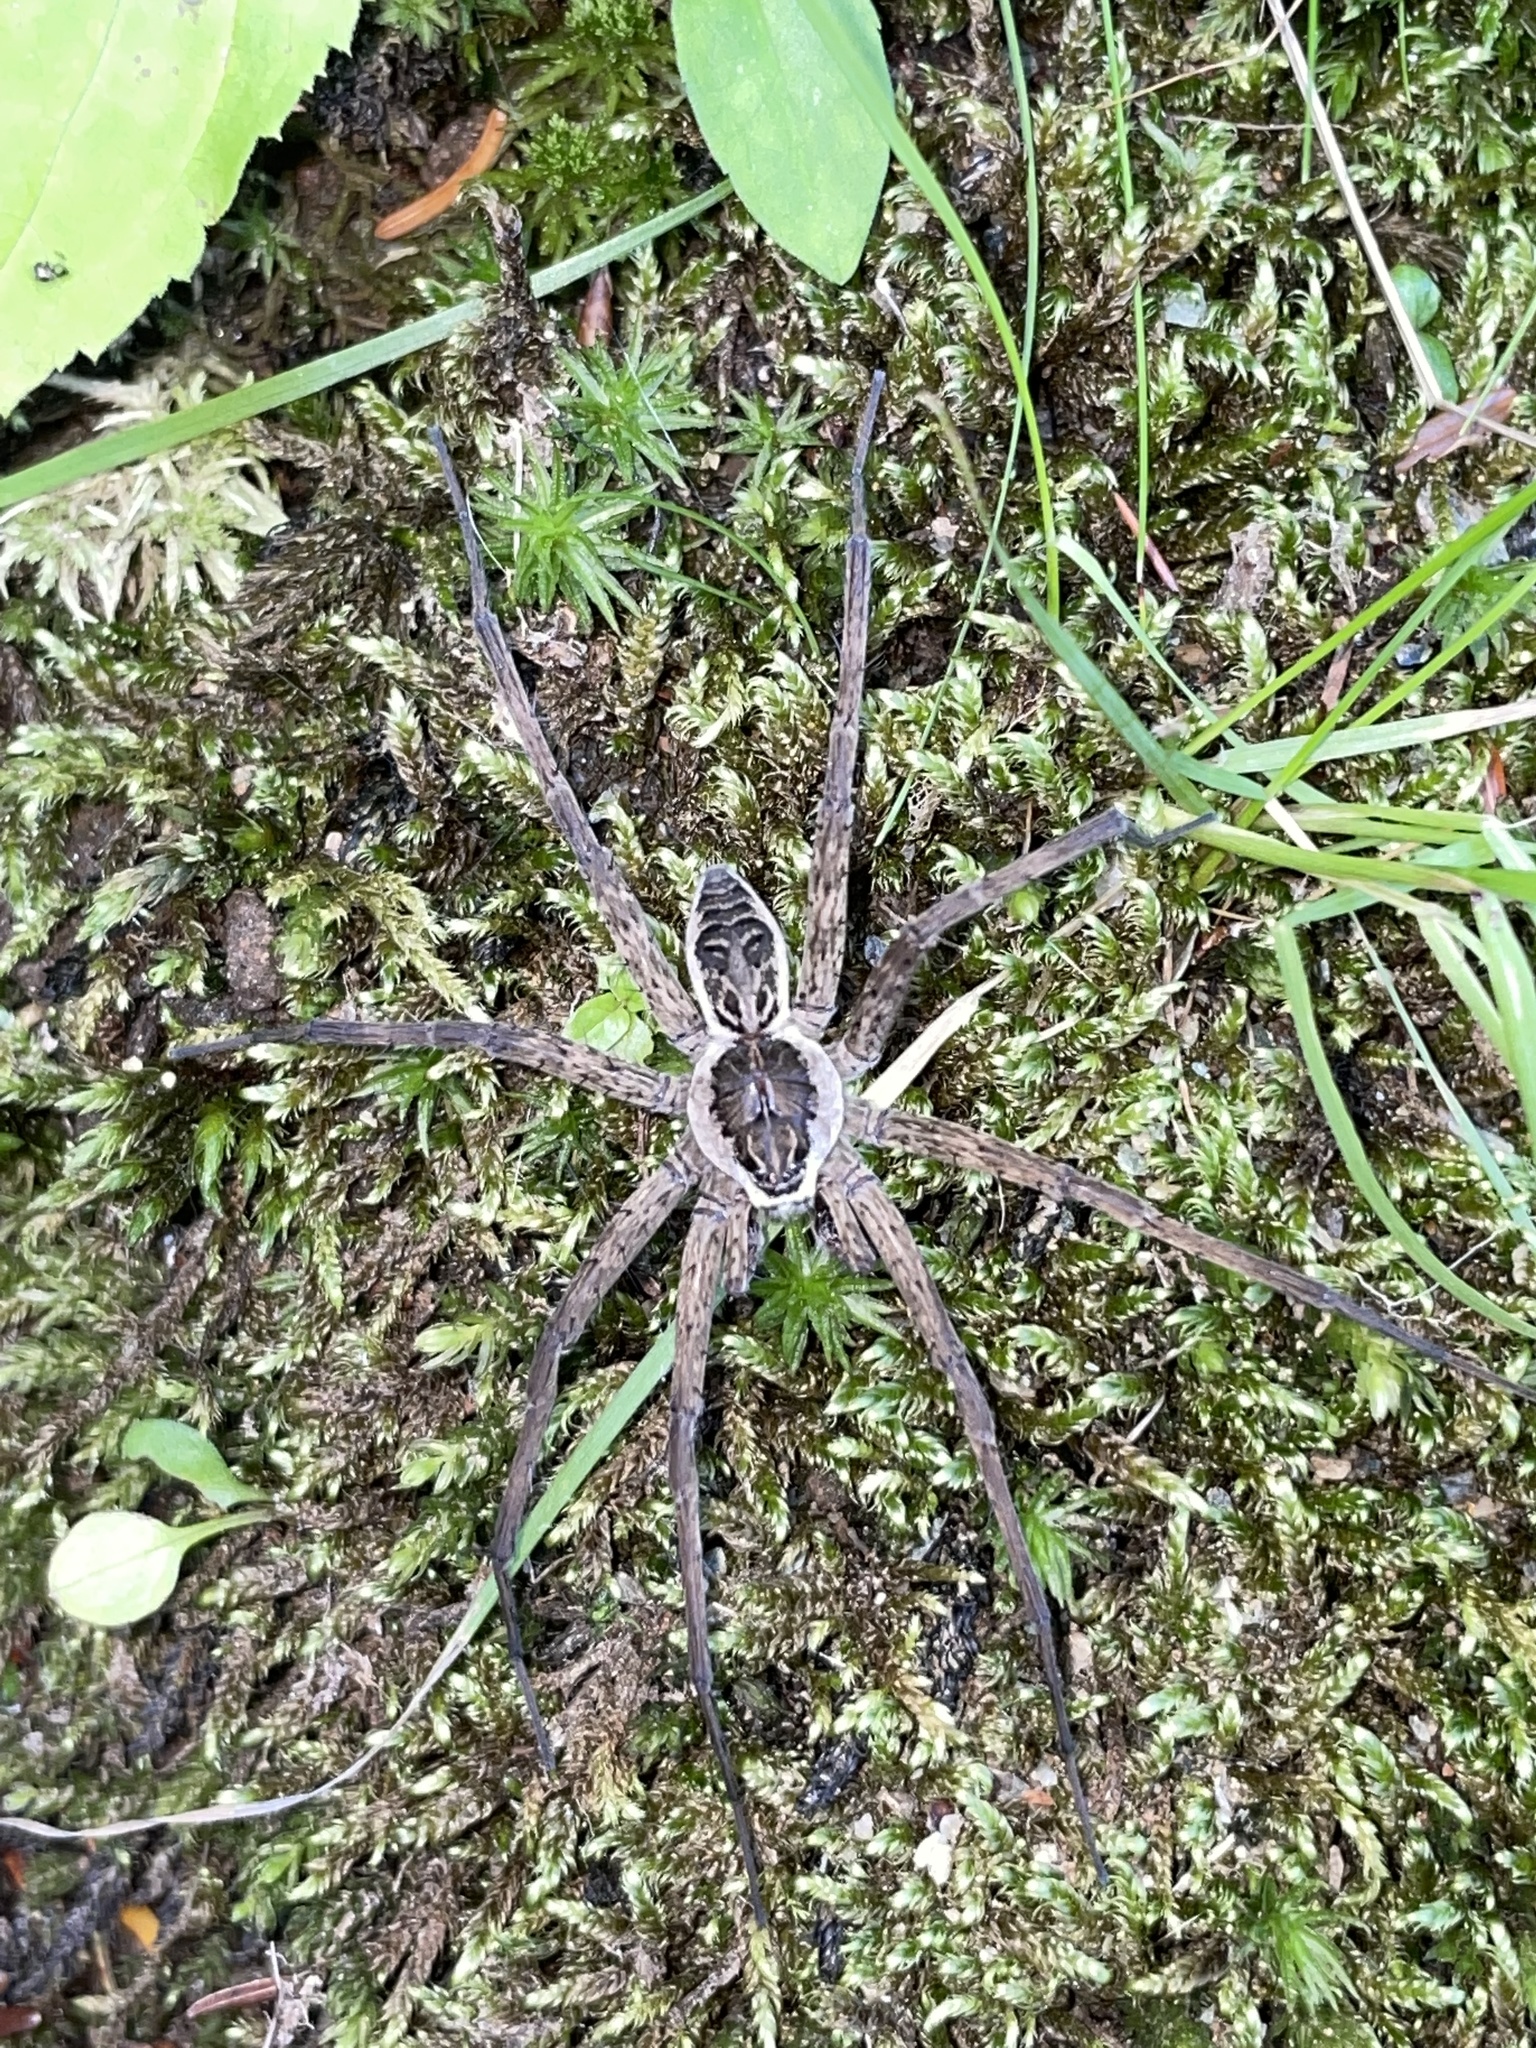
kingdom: Animalia
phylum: Arthropoda
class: Arachnida
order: Araneae
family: Pisauridae
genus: Dolomedes
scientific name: Dolomedes scriptus
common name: Striped fishing spider
